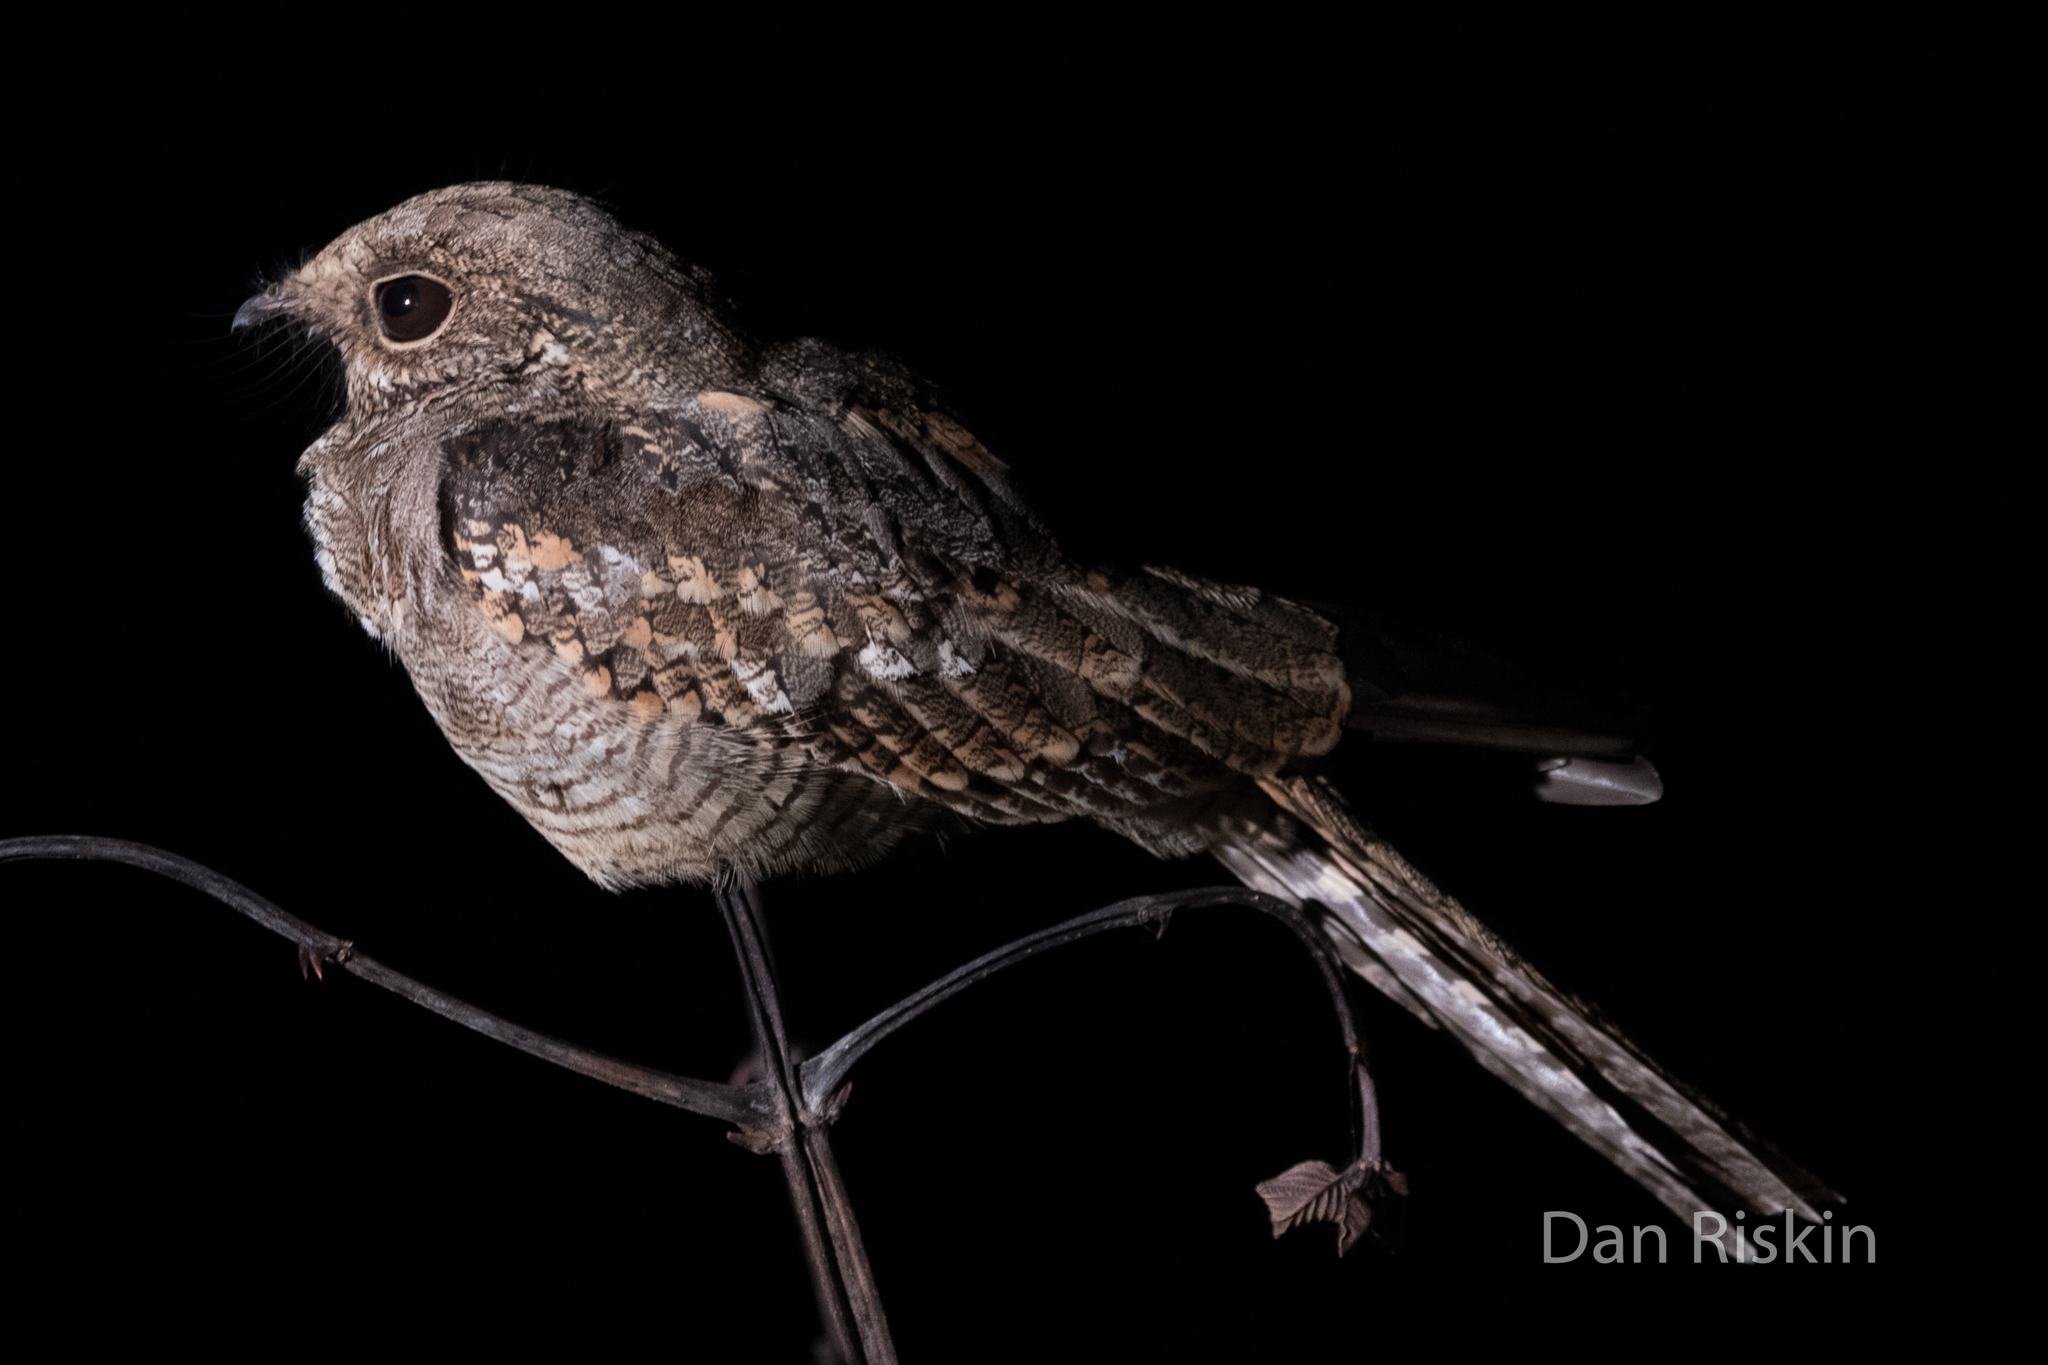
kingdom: Animalia
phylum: Chordata
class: Aves
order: Caprimulgiformes
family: Caprimulgidae
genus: Hydropsalis
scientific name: Hydropsalis climacocerca
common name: Ladder-tailed nightjar
